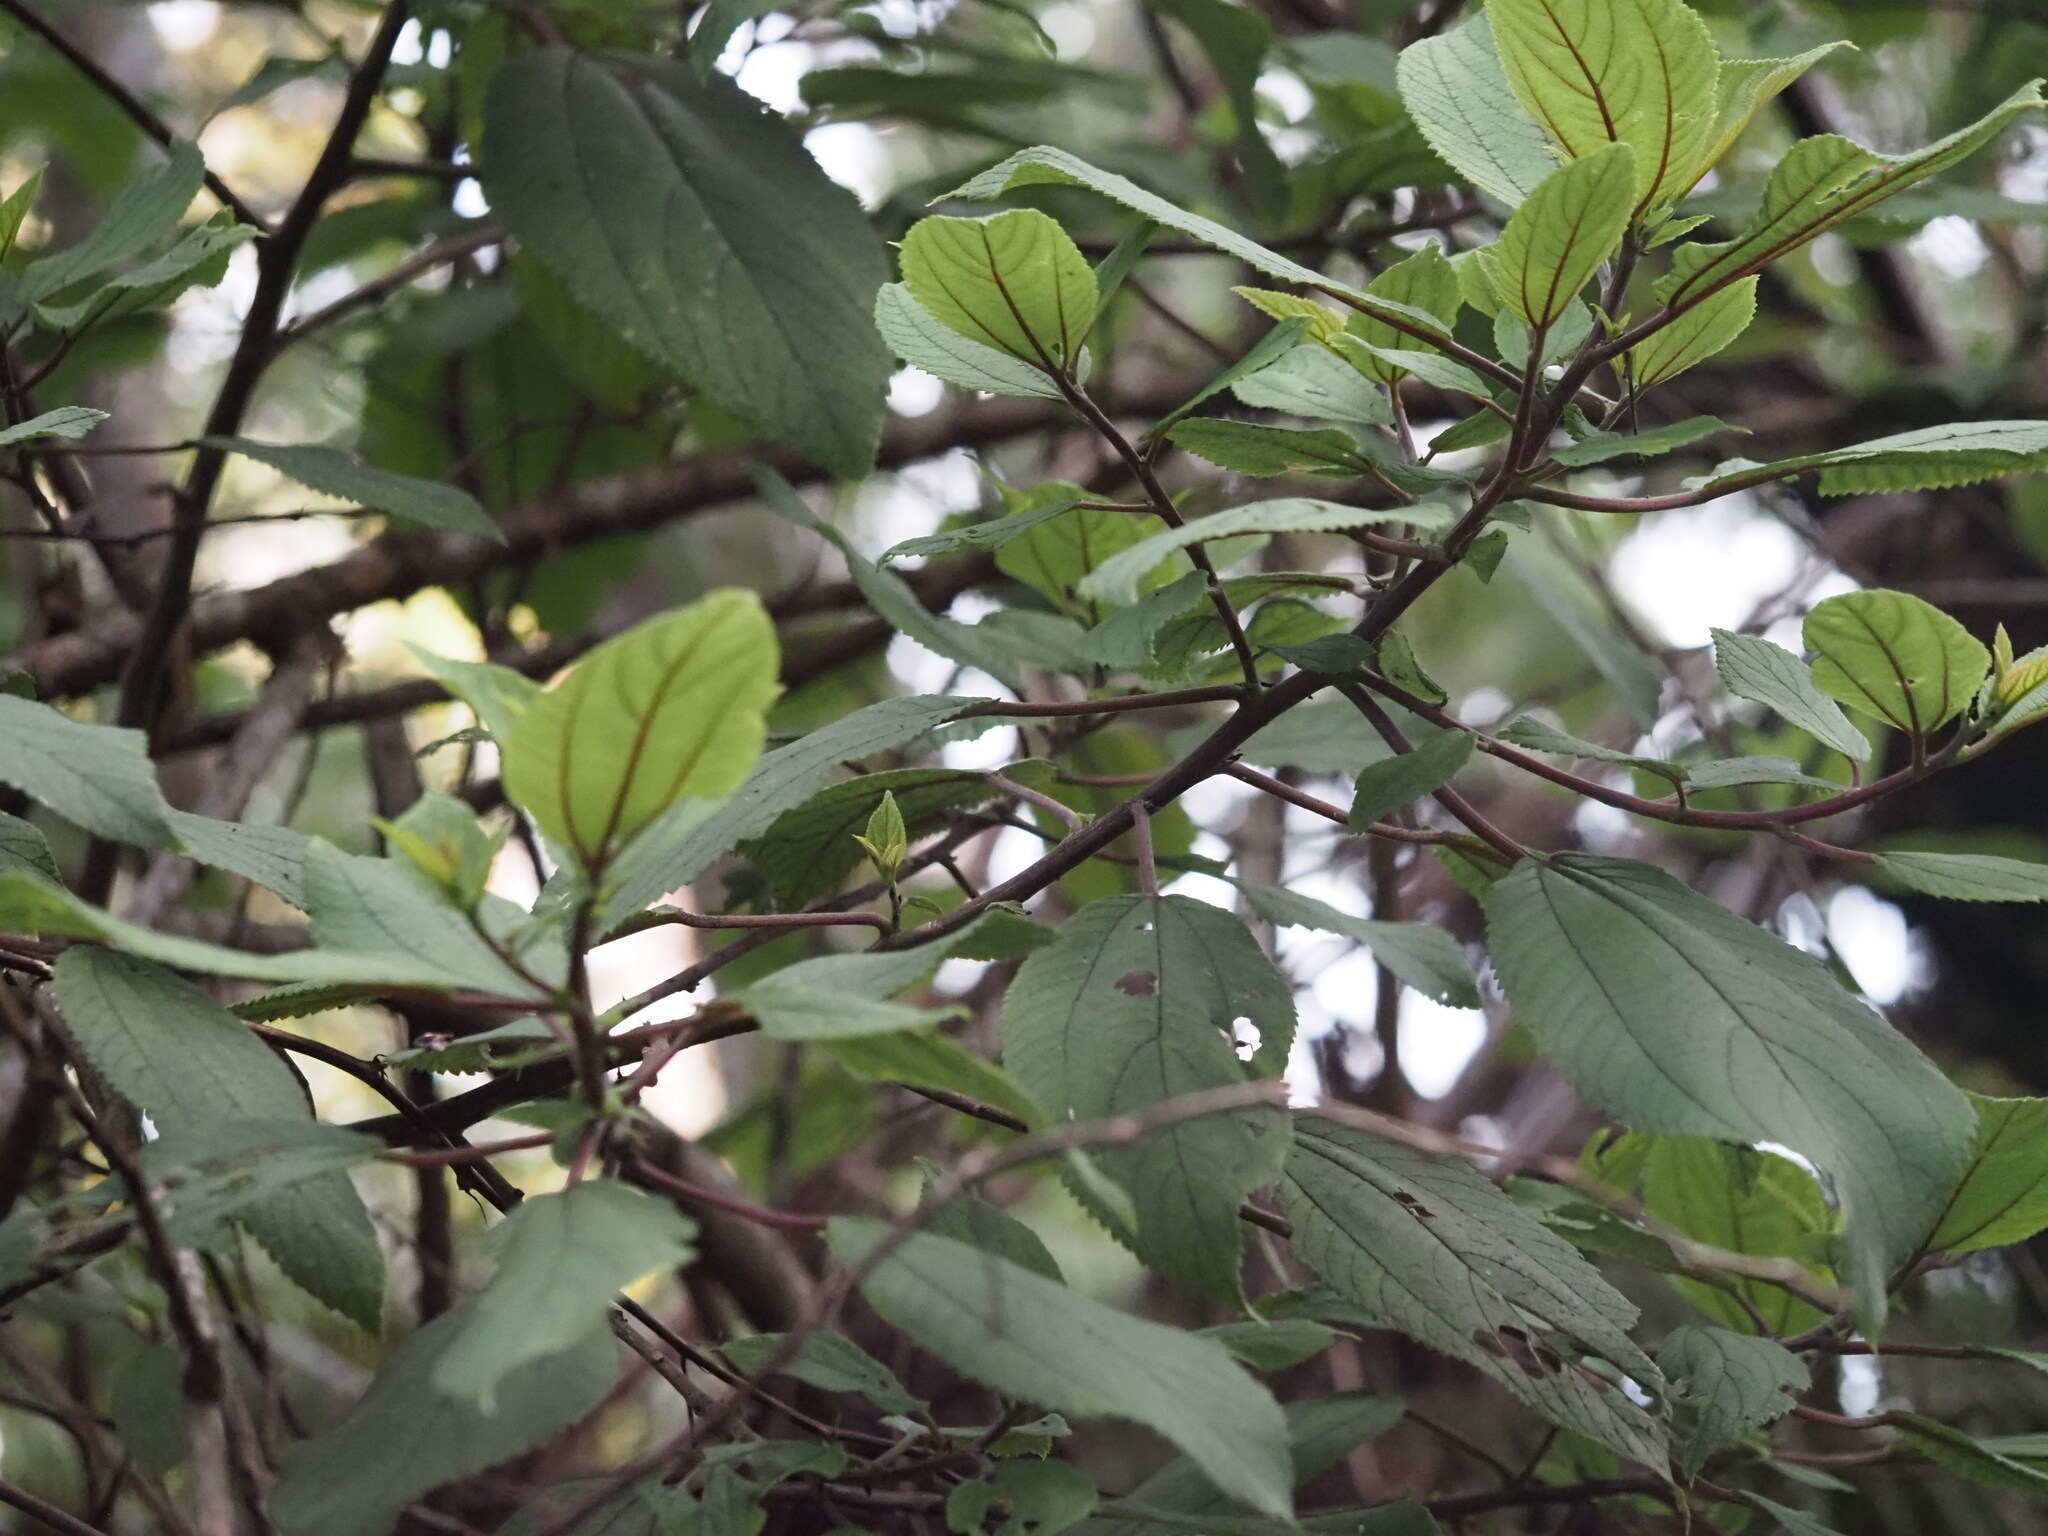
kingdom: Plantae
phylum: Tracheophyta
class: Magnoliopsida
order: Rosales
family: Urticaceae
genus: Pipturus
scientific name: Pipturus albidus
